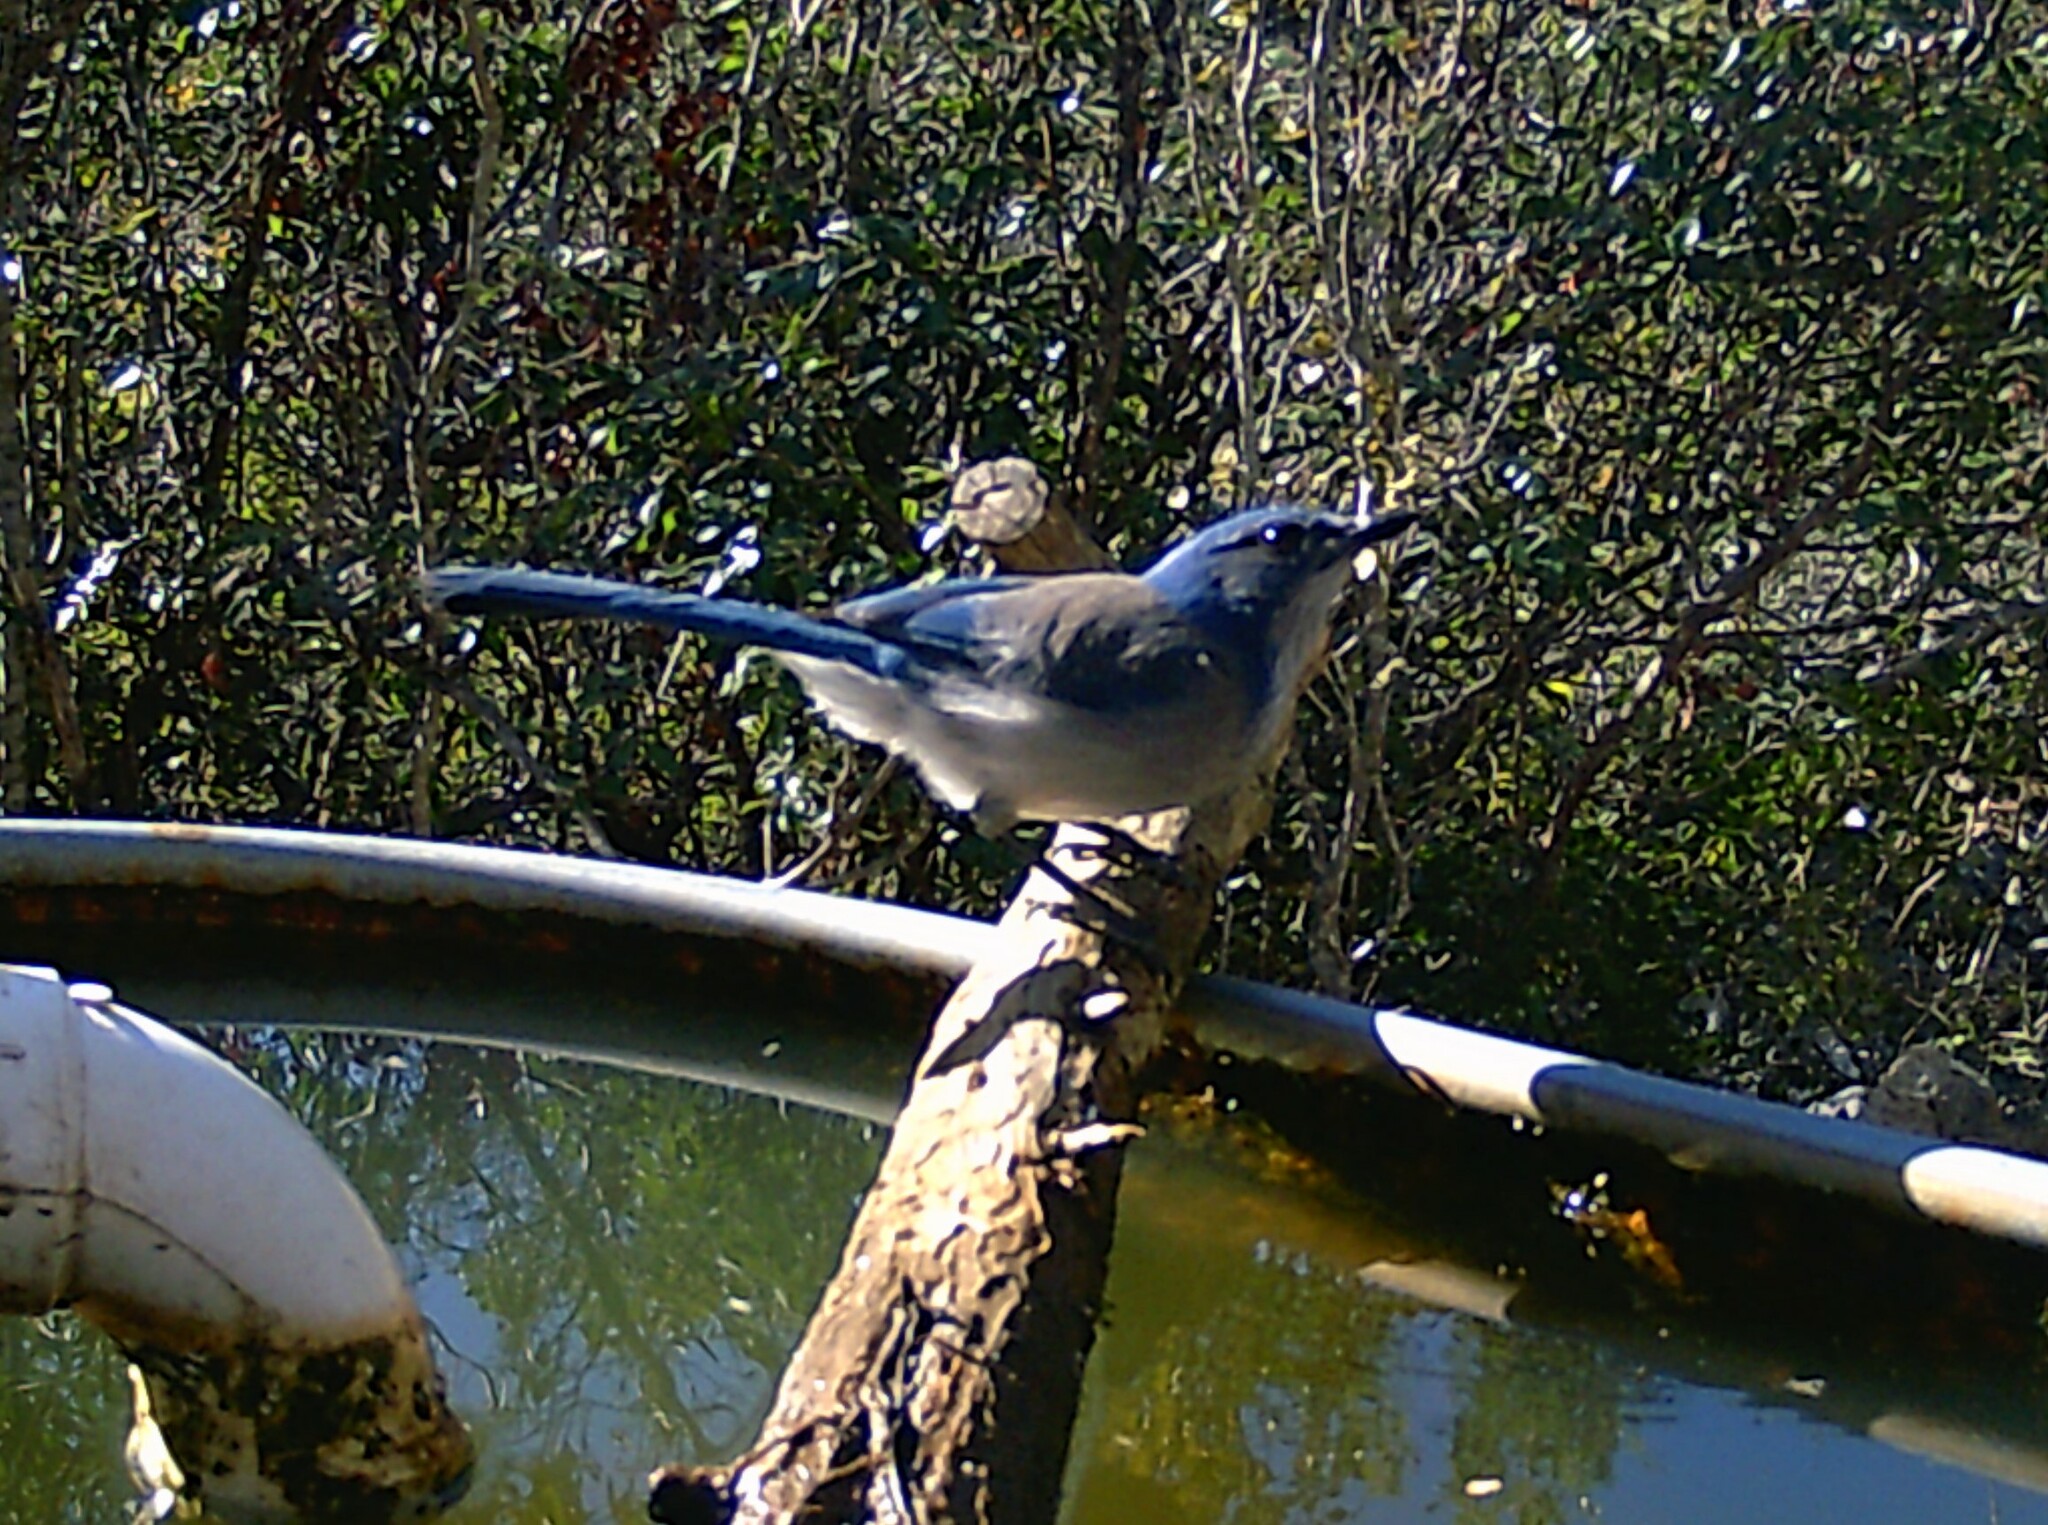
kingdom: Animalia
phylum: Chordata
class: Aves
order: Passeriformes
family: Corvidae
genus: Aphelocoma
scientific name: Aphelocoma woodhouseii
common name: Woodhouse's scrub-jay
